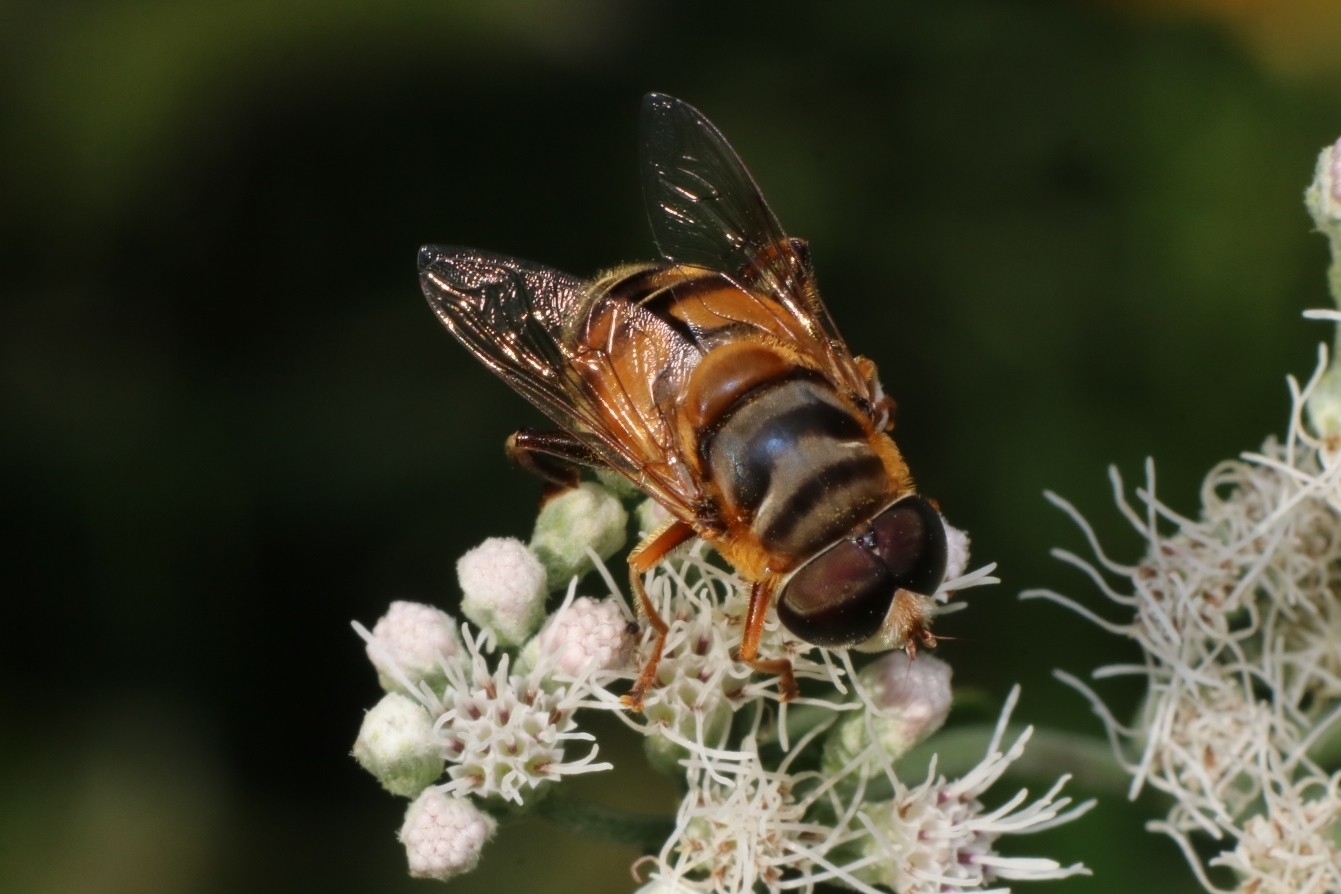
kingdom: Animalia
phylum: Arthropoda
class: Insecta
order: Diptera
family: Syrphidae
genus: Palpada
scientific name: Palpada vinetorum
